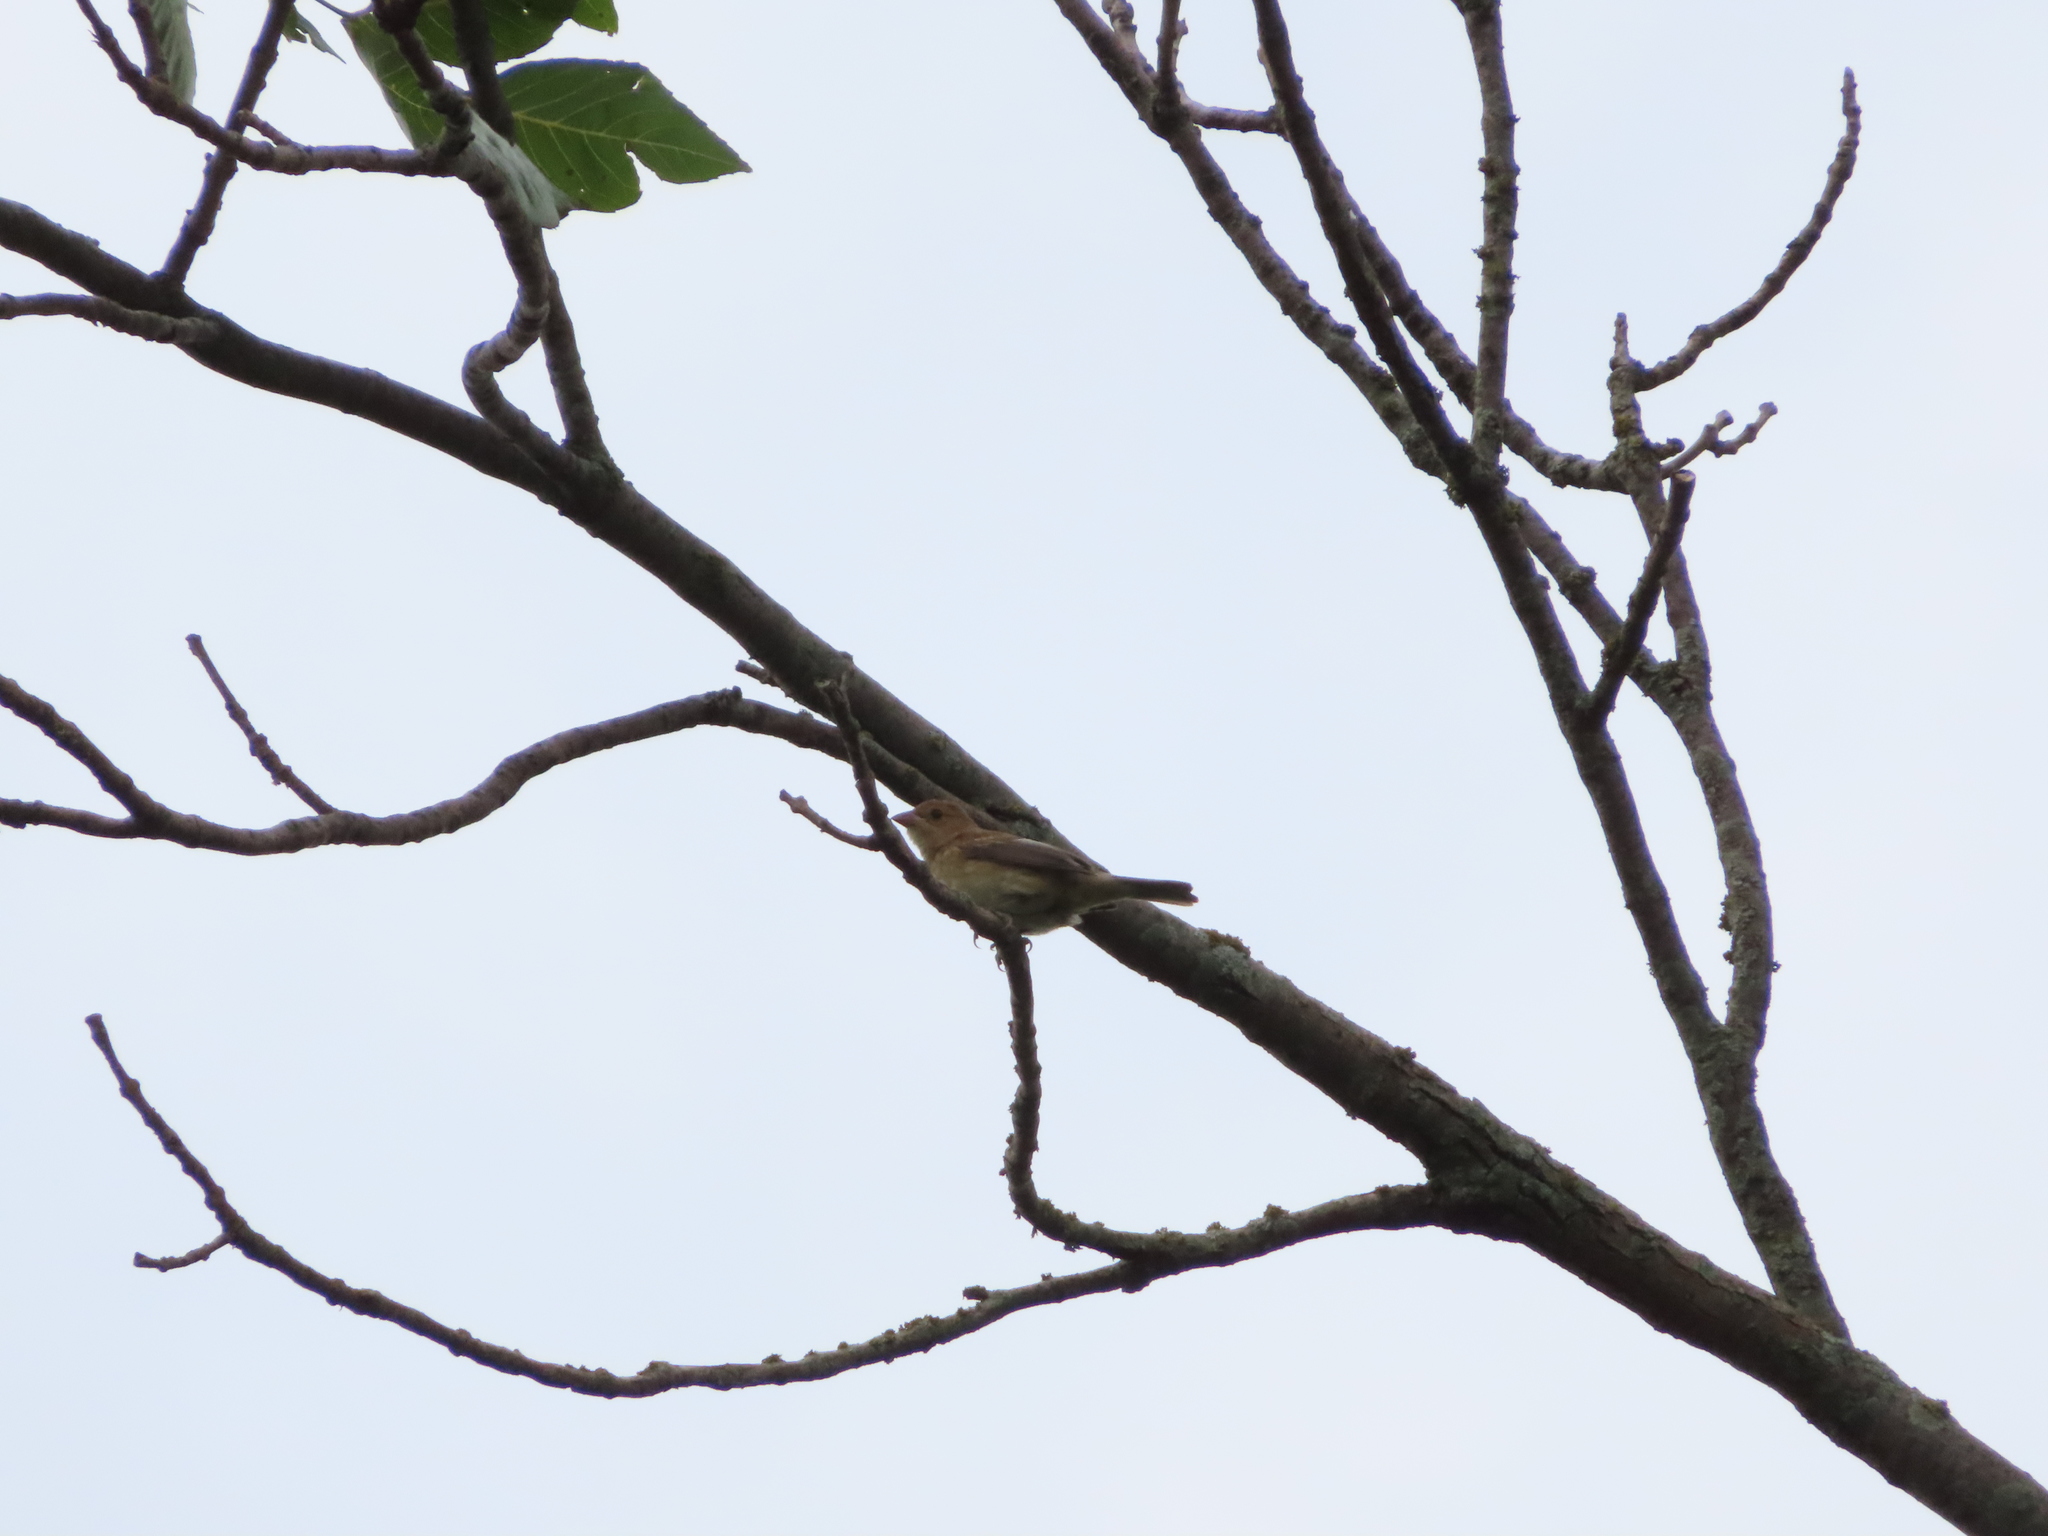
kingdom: Animalia
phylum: Chordata
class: Aves
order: Passeriformes
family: Cardinalidae
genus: Passerina
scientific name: Passerina cyanea
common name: Indigo bunting
